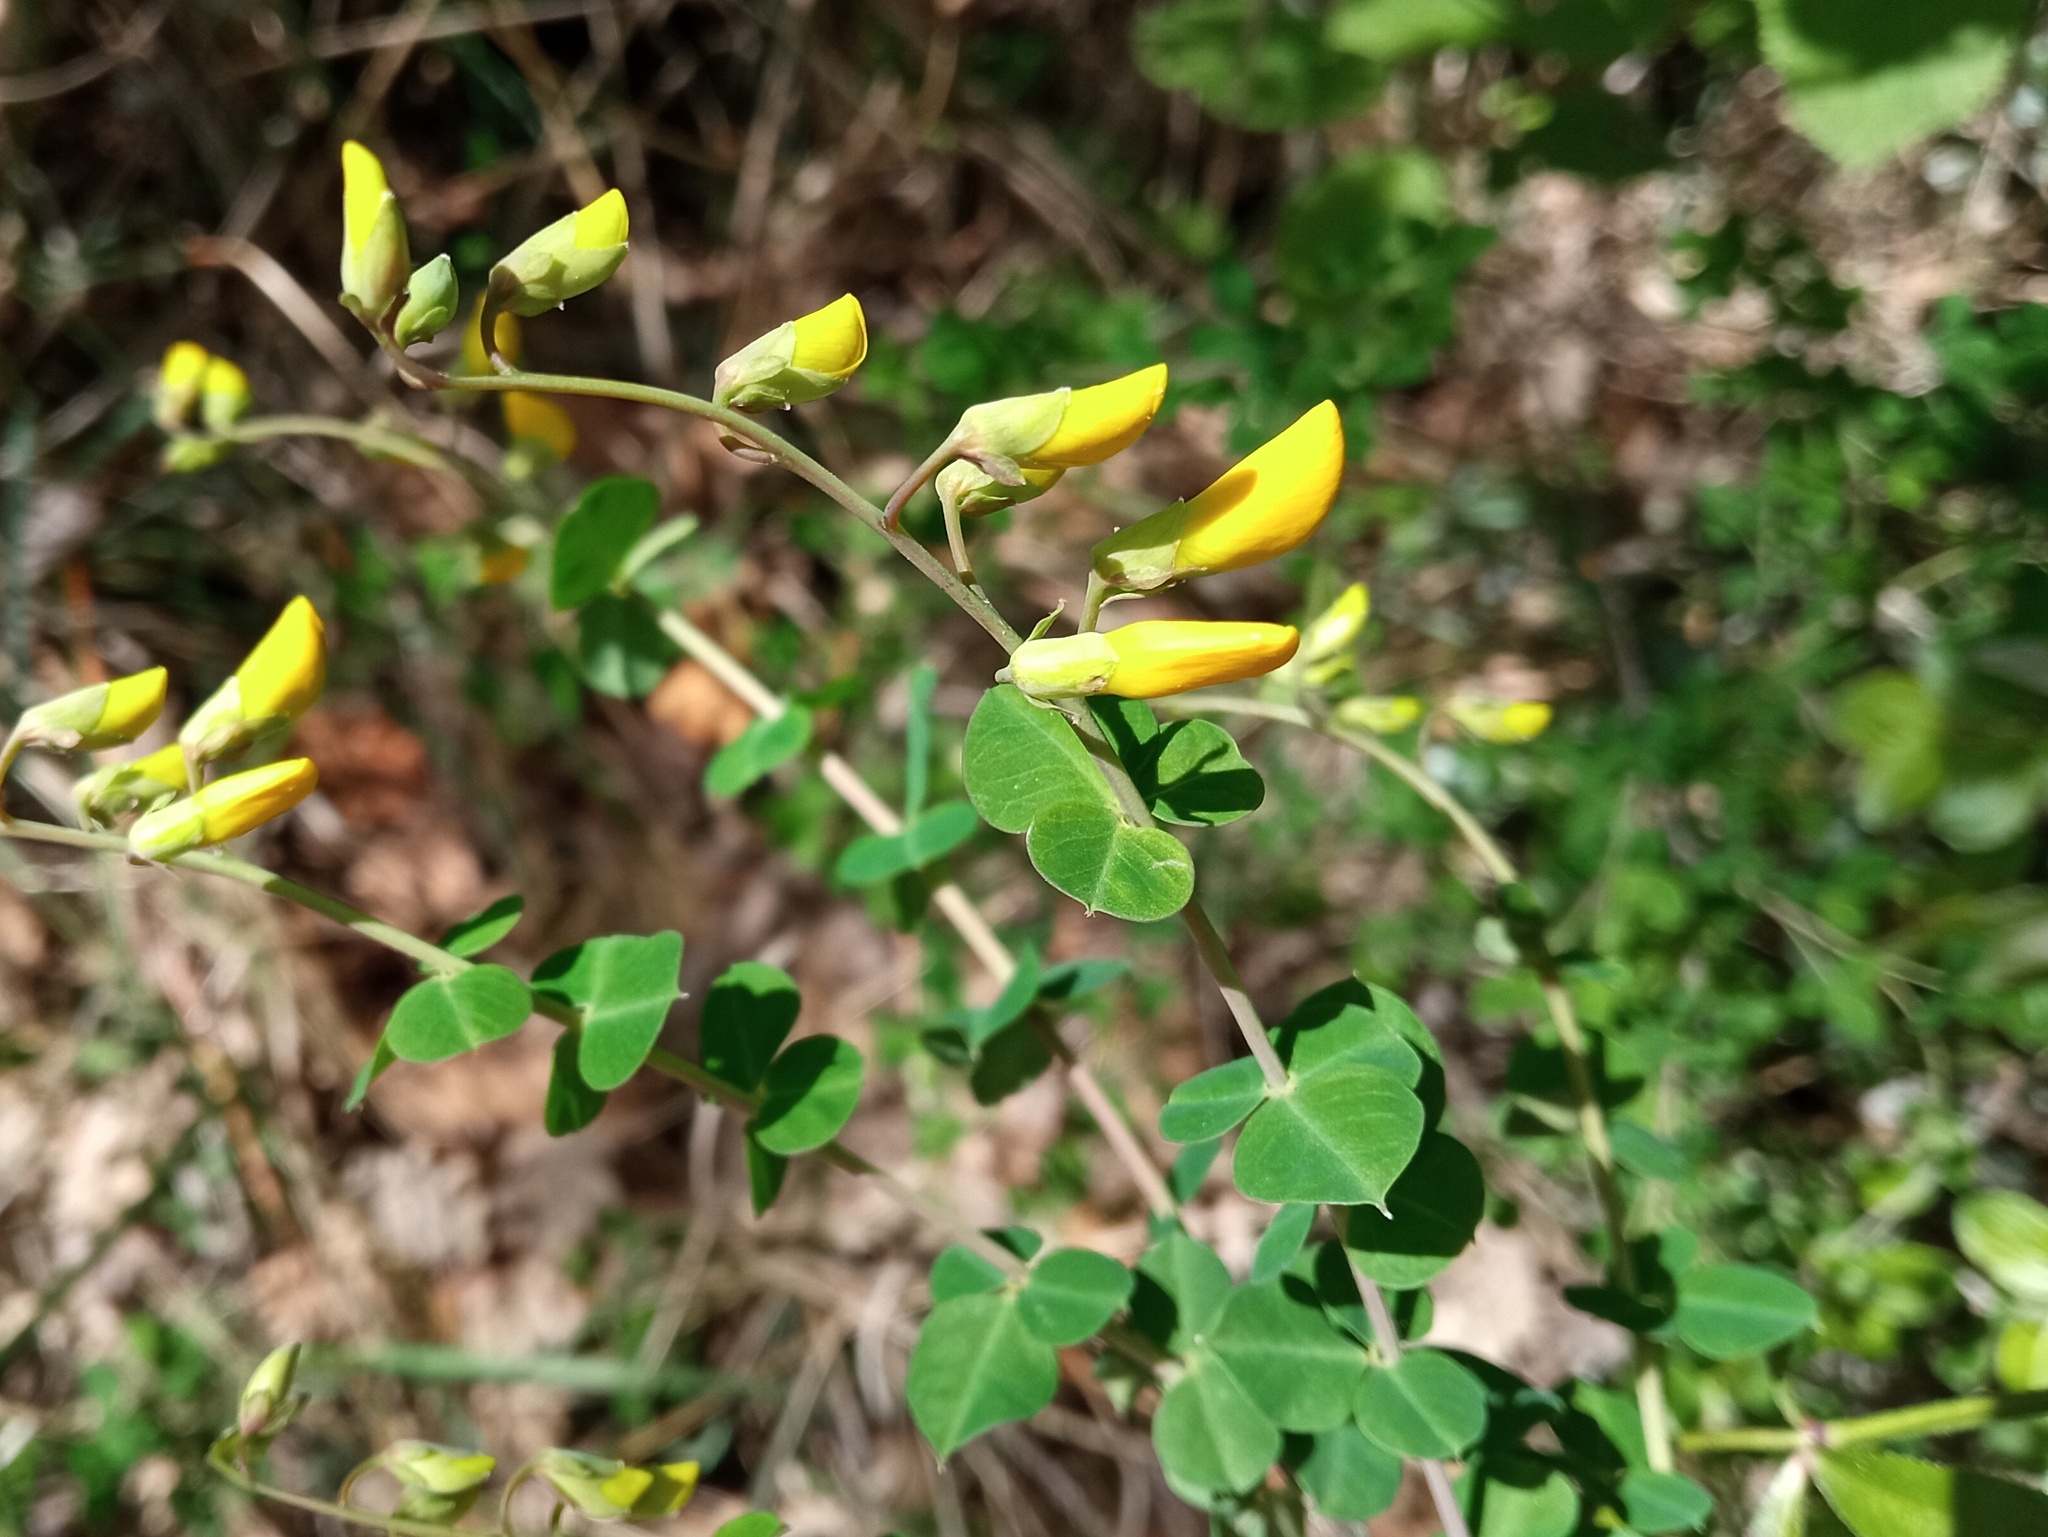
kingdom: Plantae
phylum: Tracheophyta
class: Magnoliopsida
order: Fabales
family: Fabaceae
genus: Cytisophyllum
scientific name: Cytisophyllum sessilifolium
